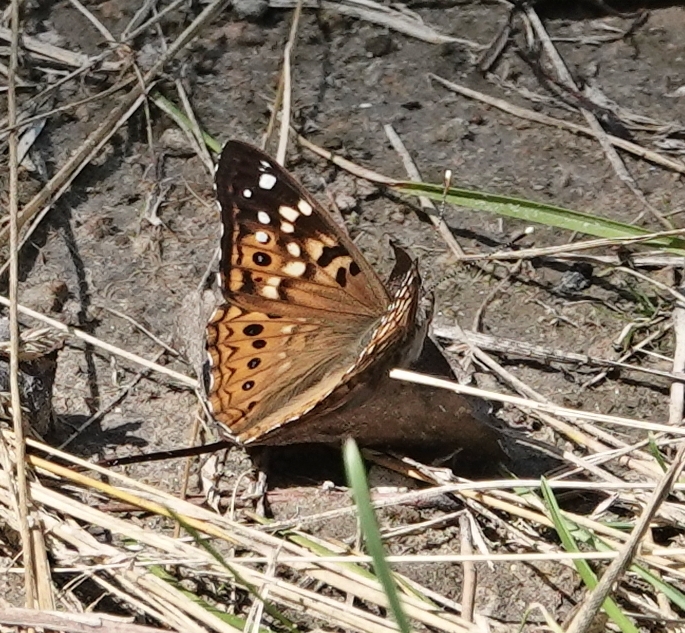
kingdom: Animalia
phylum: Arthropoda
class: Insecta
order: Lepidoptera
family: Nymphalidae
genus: Asterocampa
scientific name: Asterocampa celtis
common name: Hackberry emperor
